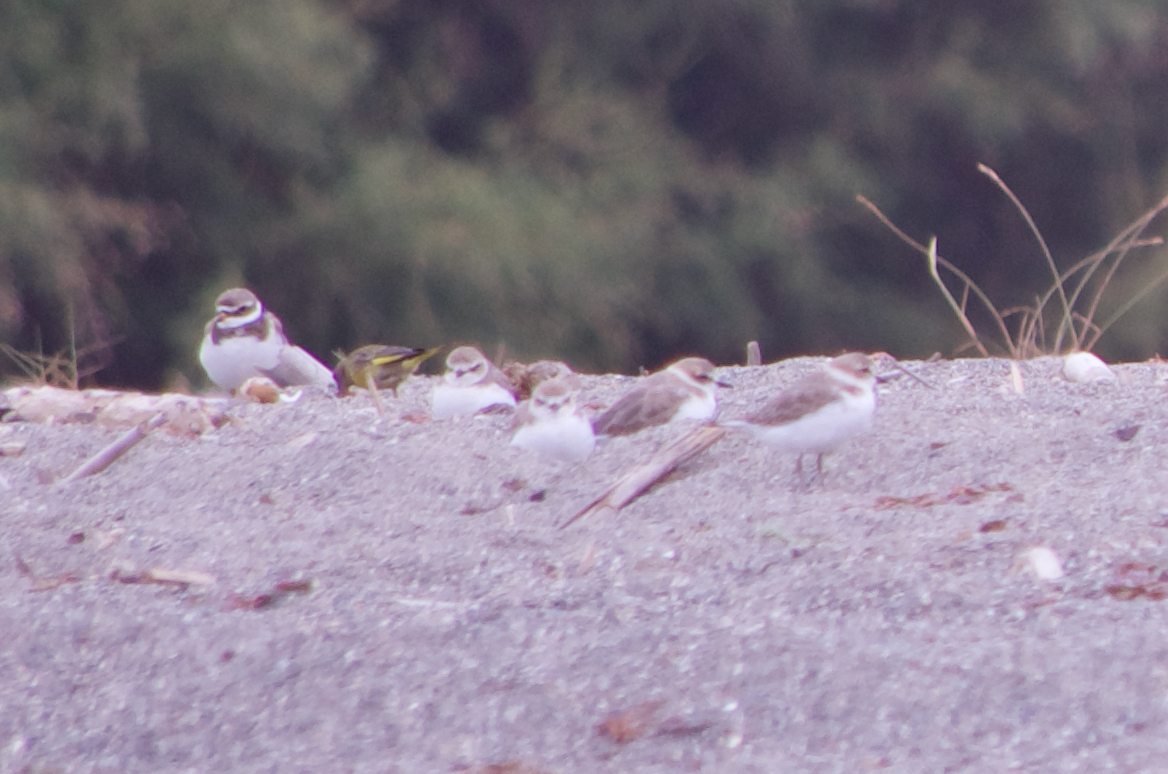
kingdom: Animalia
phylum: Chordata
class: Aves
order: Charadriiformes
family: Charadriidae
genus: Charadrius
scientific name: Charadrius alexandrinus
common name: Kentish plover
